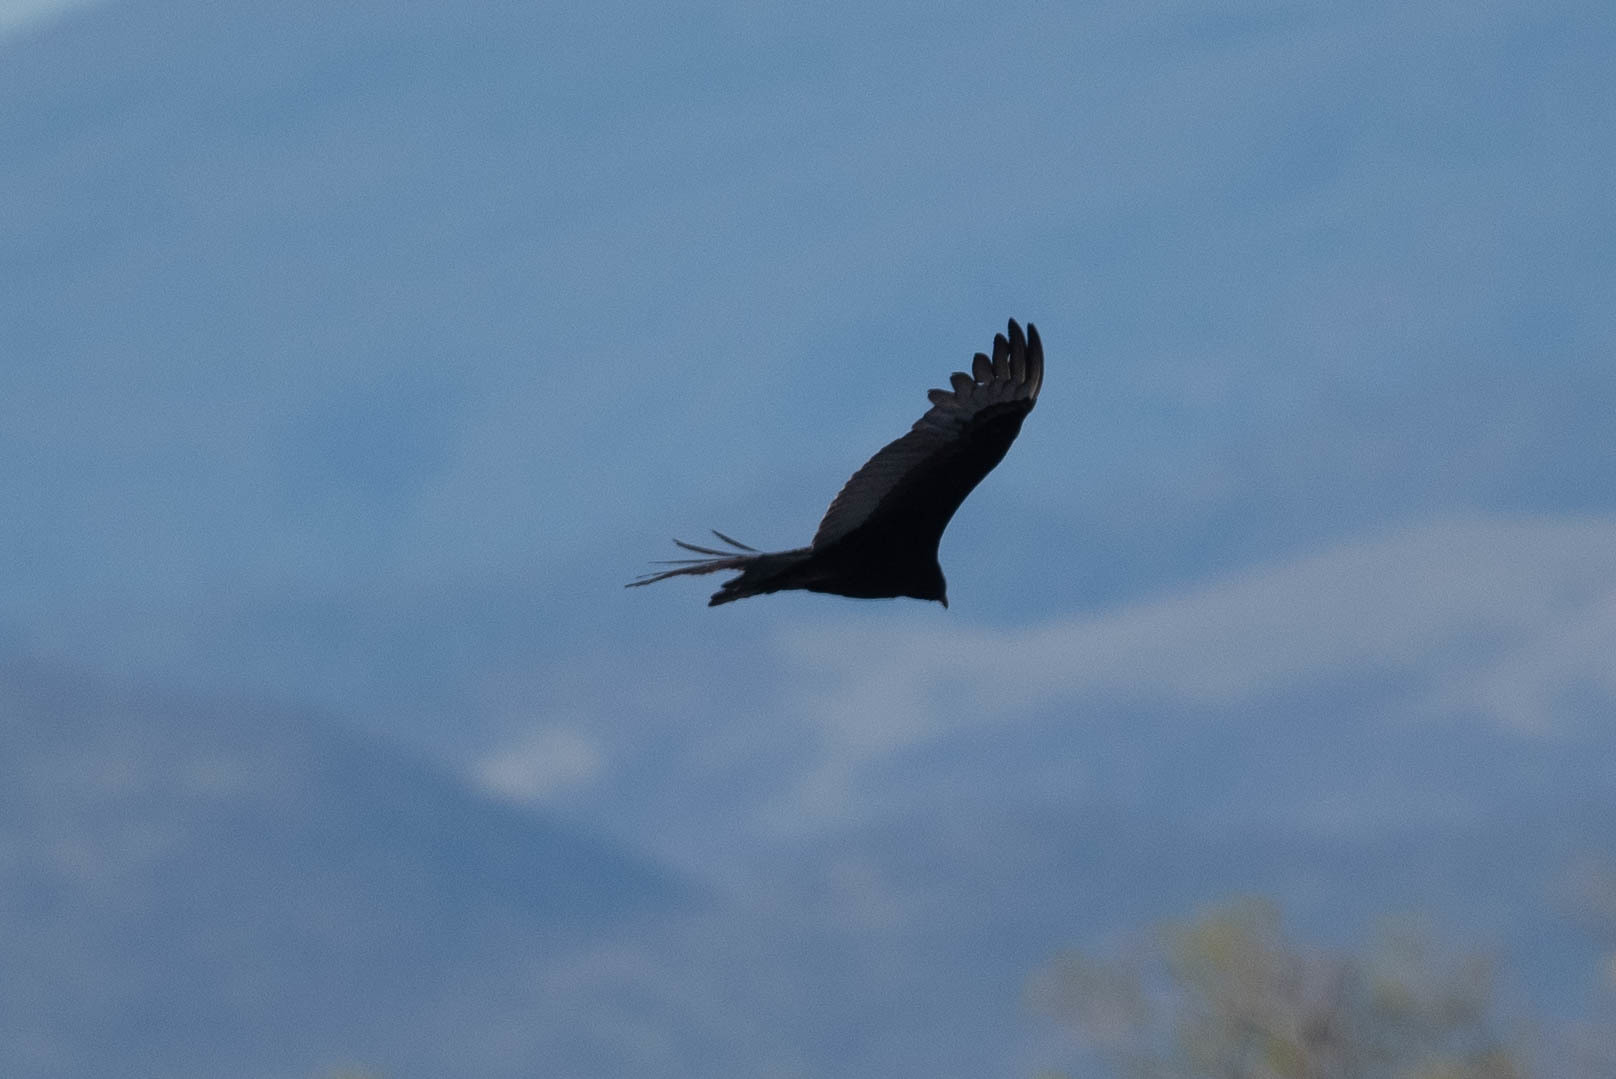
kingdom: Animalia
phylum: Chordata
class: Aves
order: Accipitriformes
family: Cathartidae
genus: Cathartes
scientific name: Cathartes aura
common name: Turkey vulture
